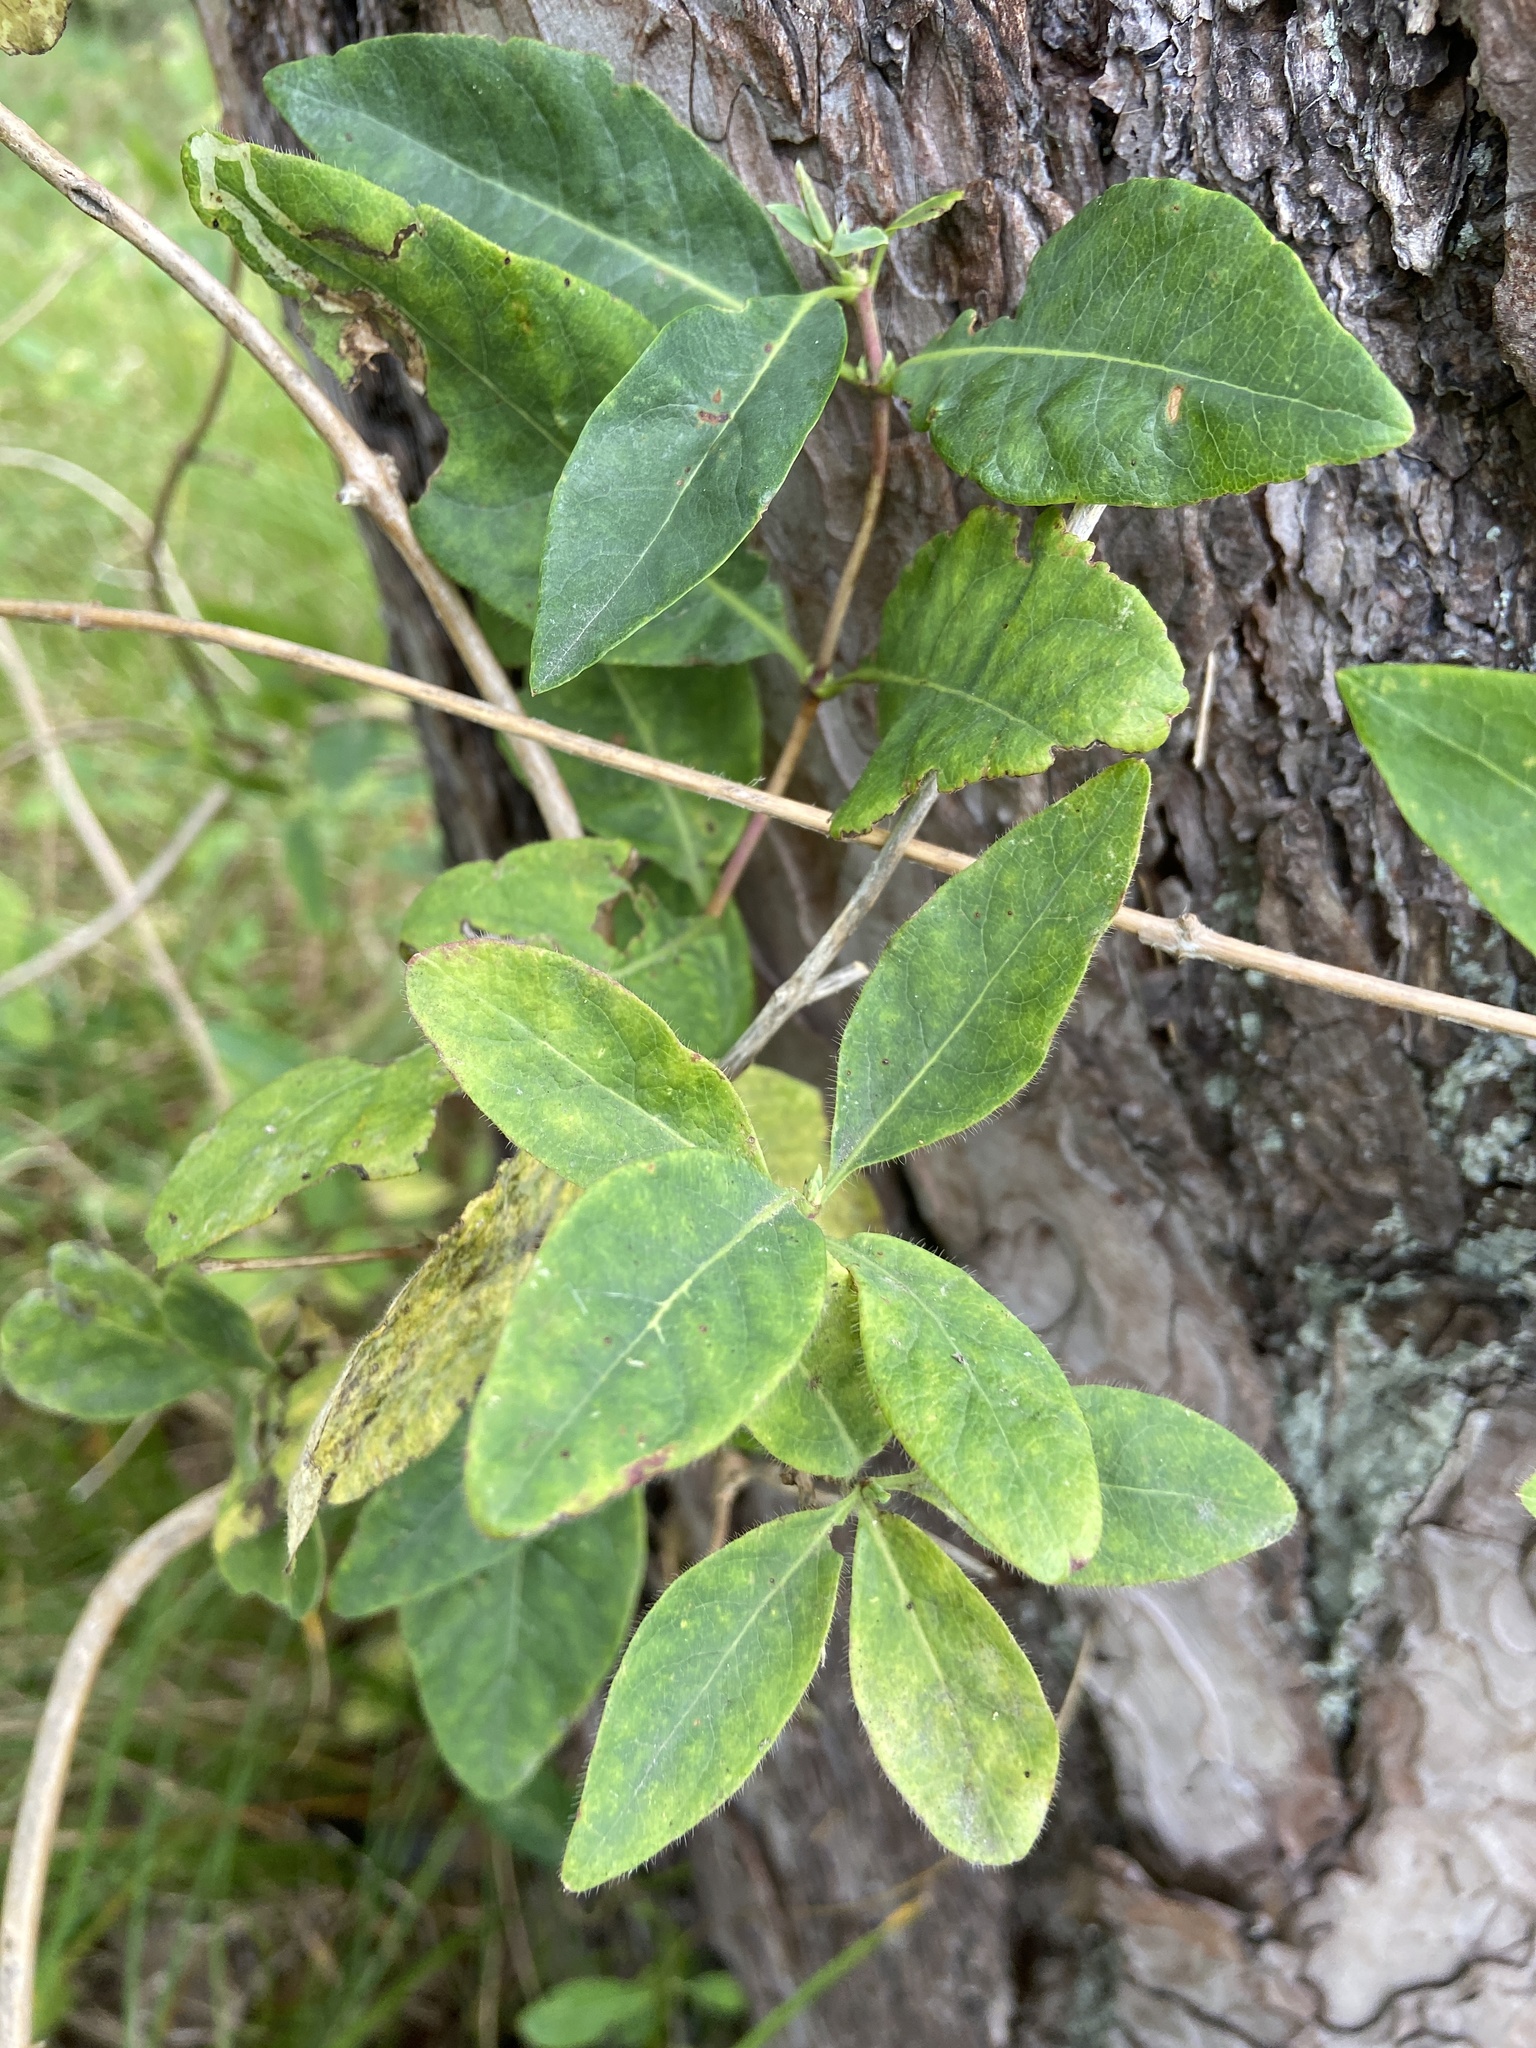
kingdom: Plantae
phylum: Tracheophyta
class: Magnoliopsida
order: Dipsacales
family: Caprifoliaceae
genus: Lonicera
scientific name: Lonicera periclymenum
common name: European honeysuckle
